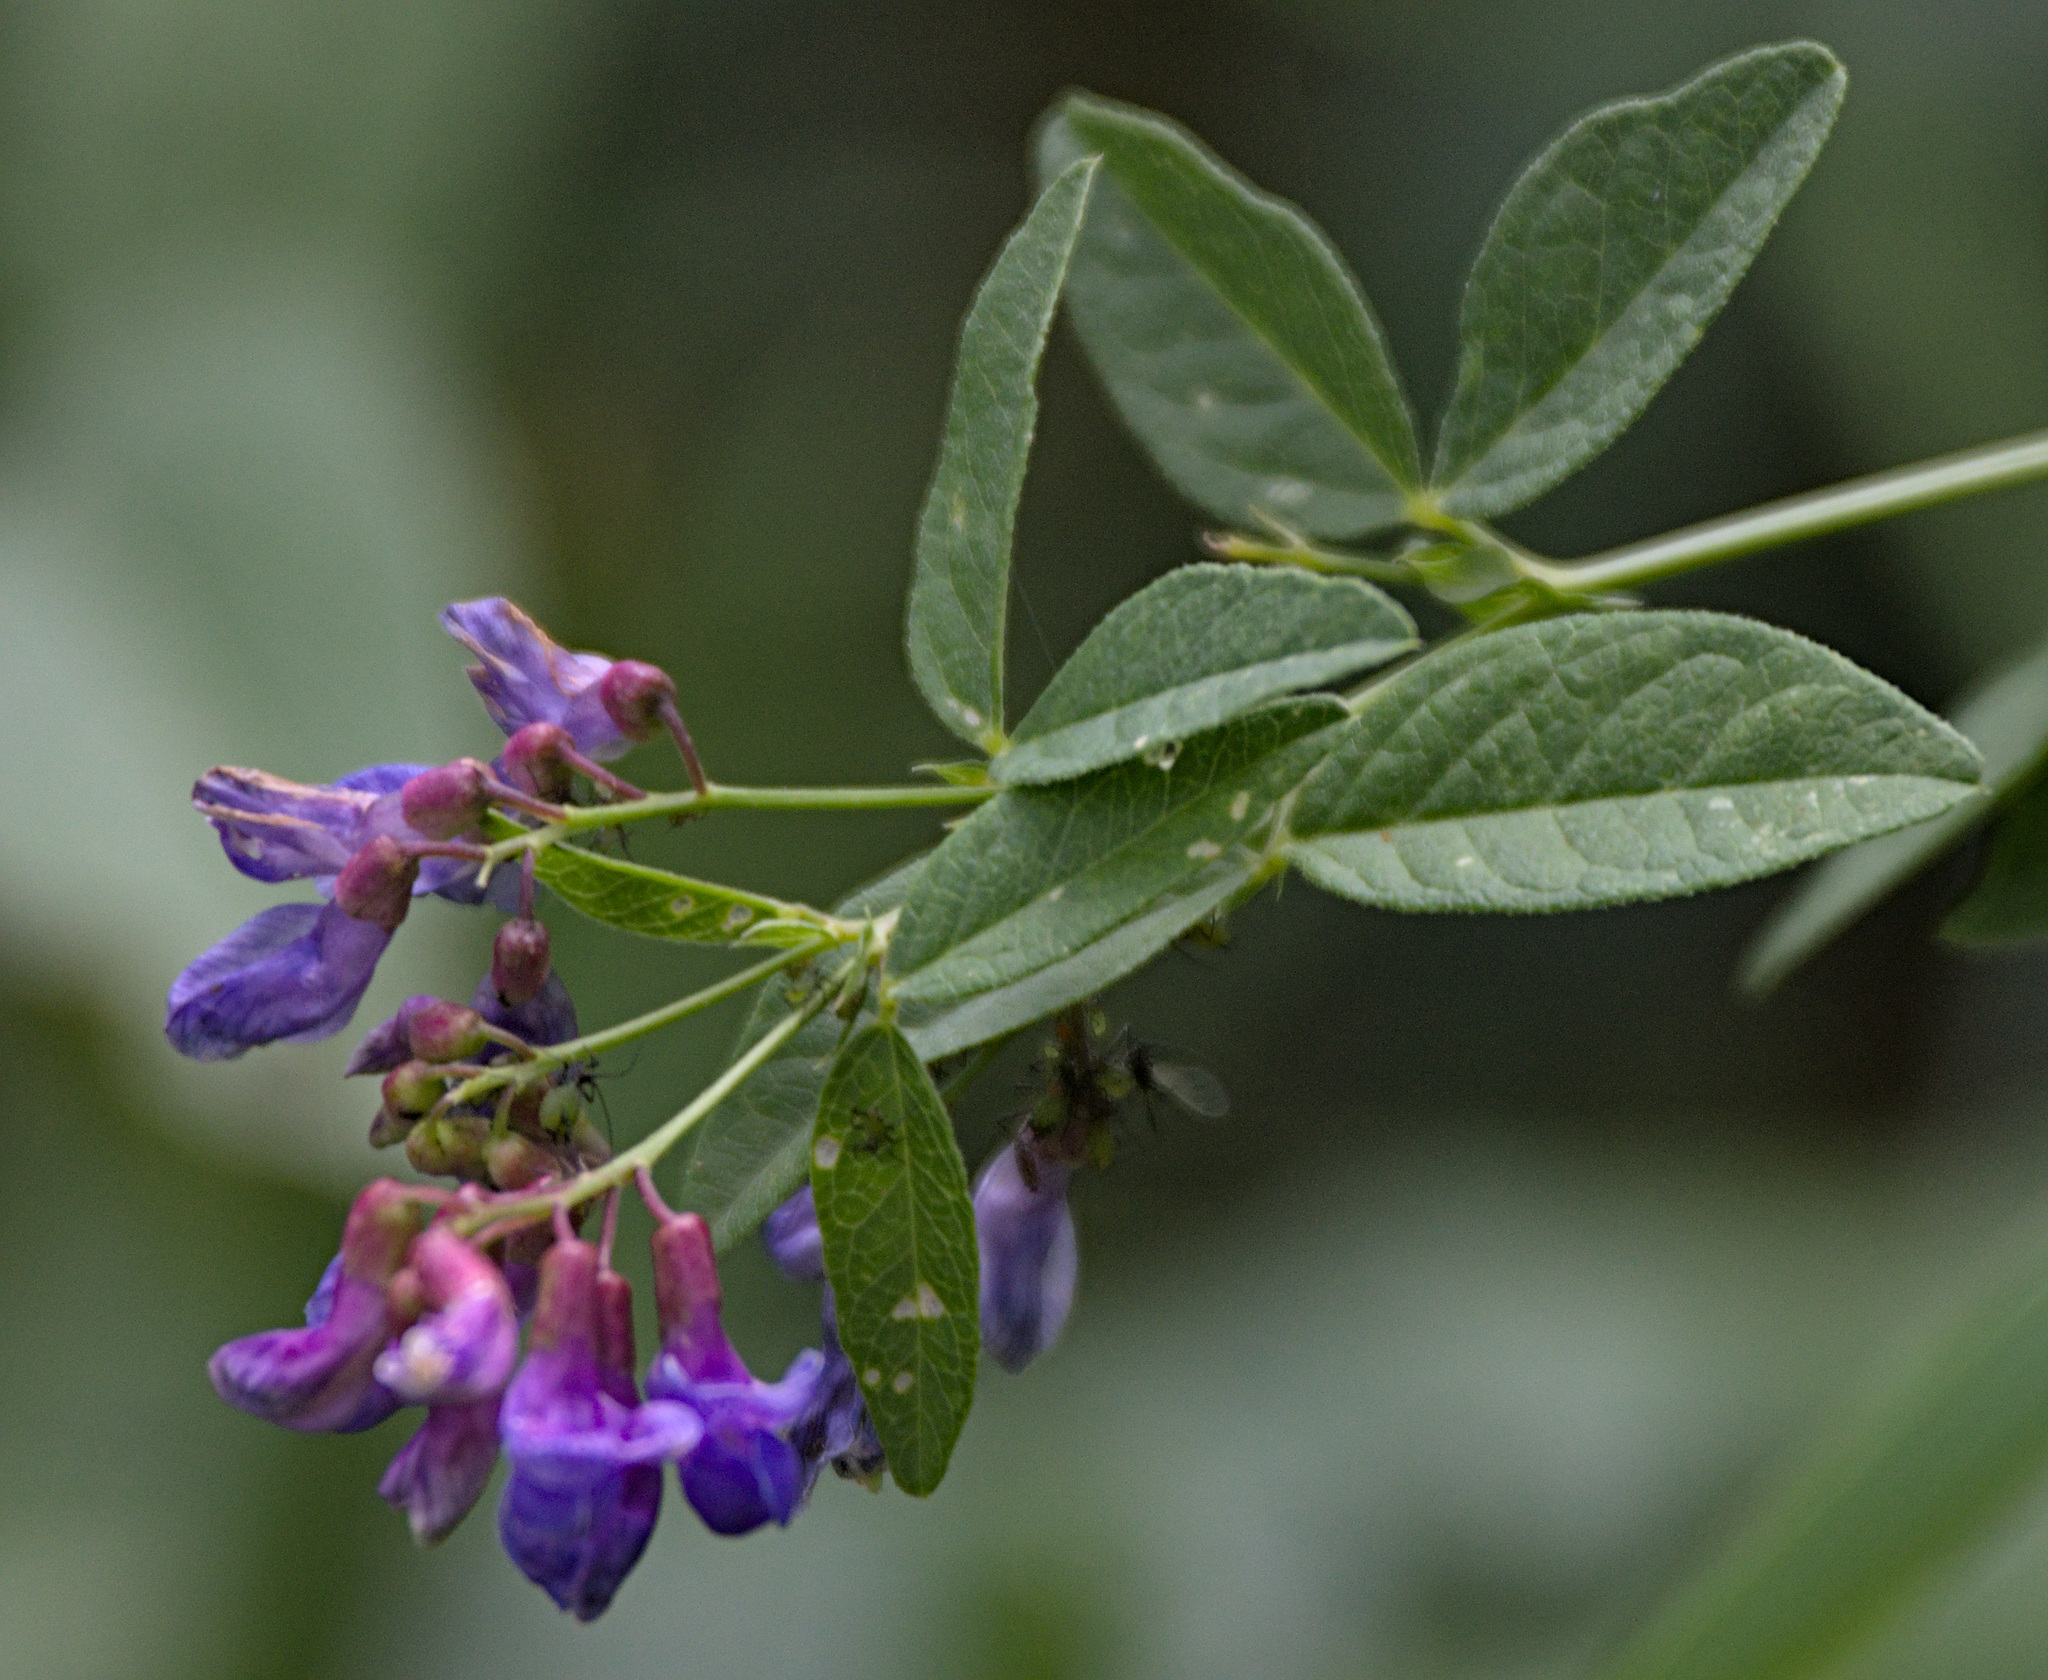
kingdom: Plantae
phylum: Tracheophyta
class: Magnoliopsida
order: Fabales
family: Fabaceae
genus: Vicia
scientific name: Vicia unijuga
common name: Two-leaf vetch
